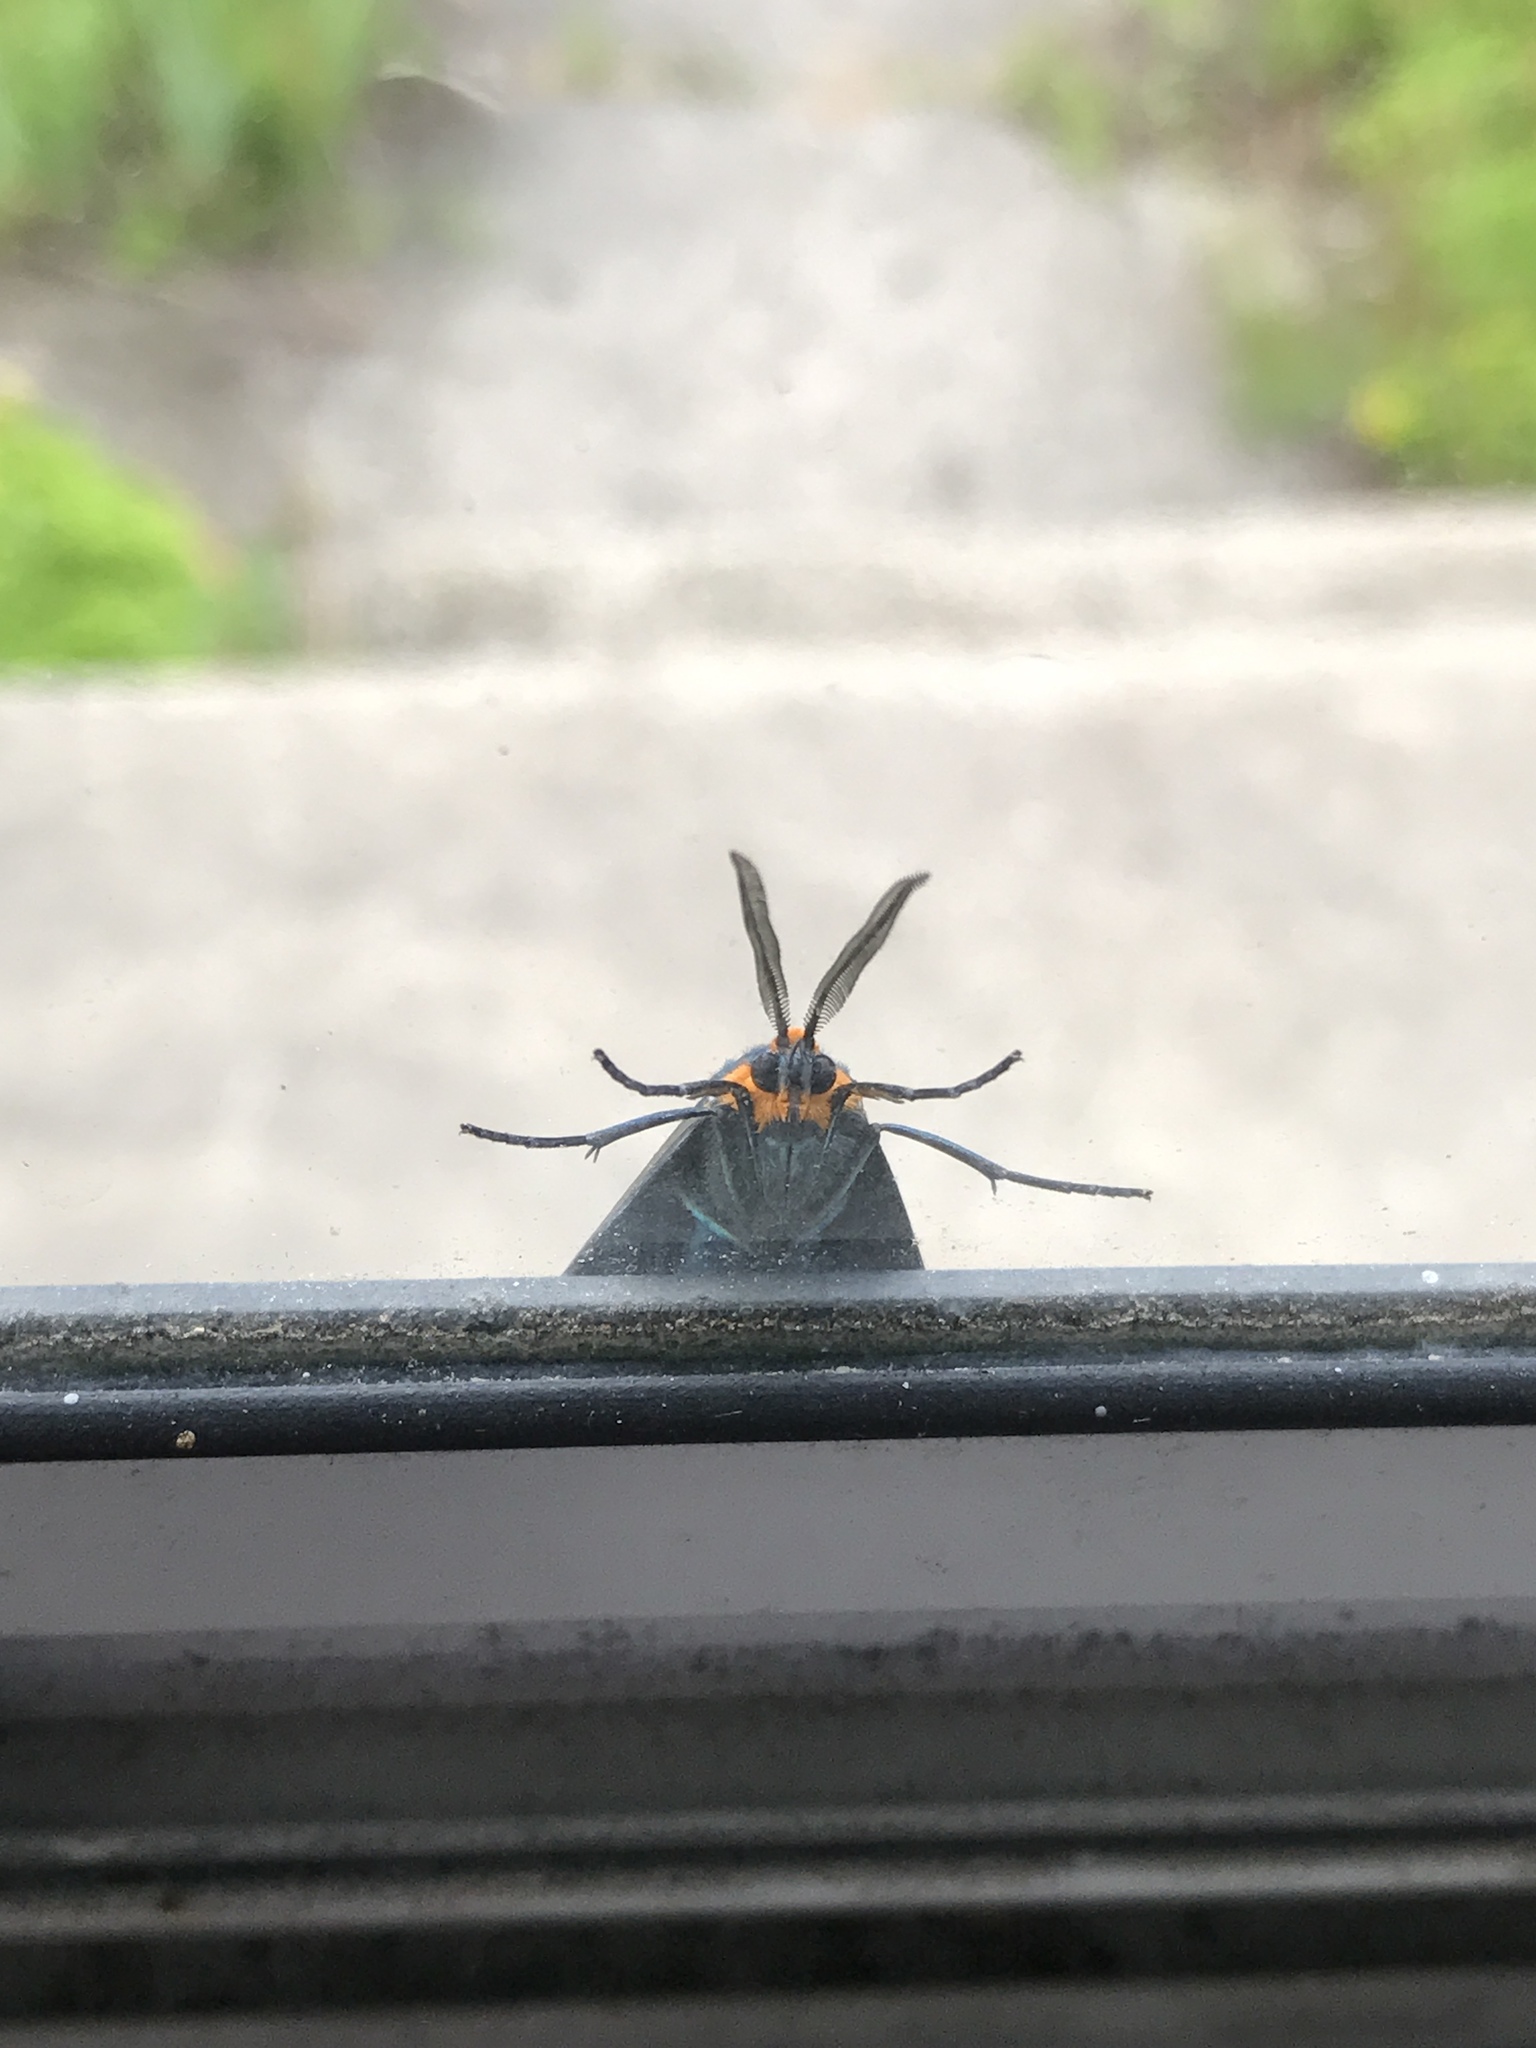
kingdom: Animalia
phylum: Arthropoda
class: Insecta
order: Lepidoptera
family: Erebidae
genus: Ctenucha
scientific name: Ctenucha virginica
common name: Virginia ctenucha moth
